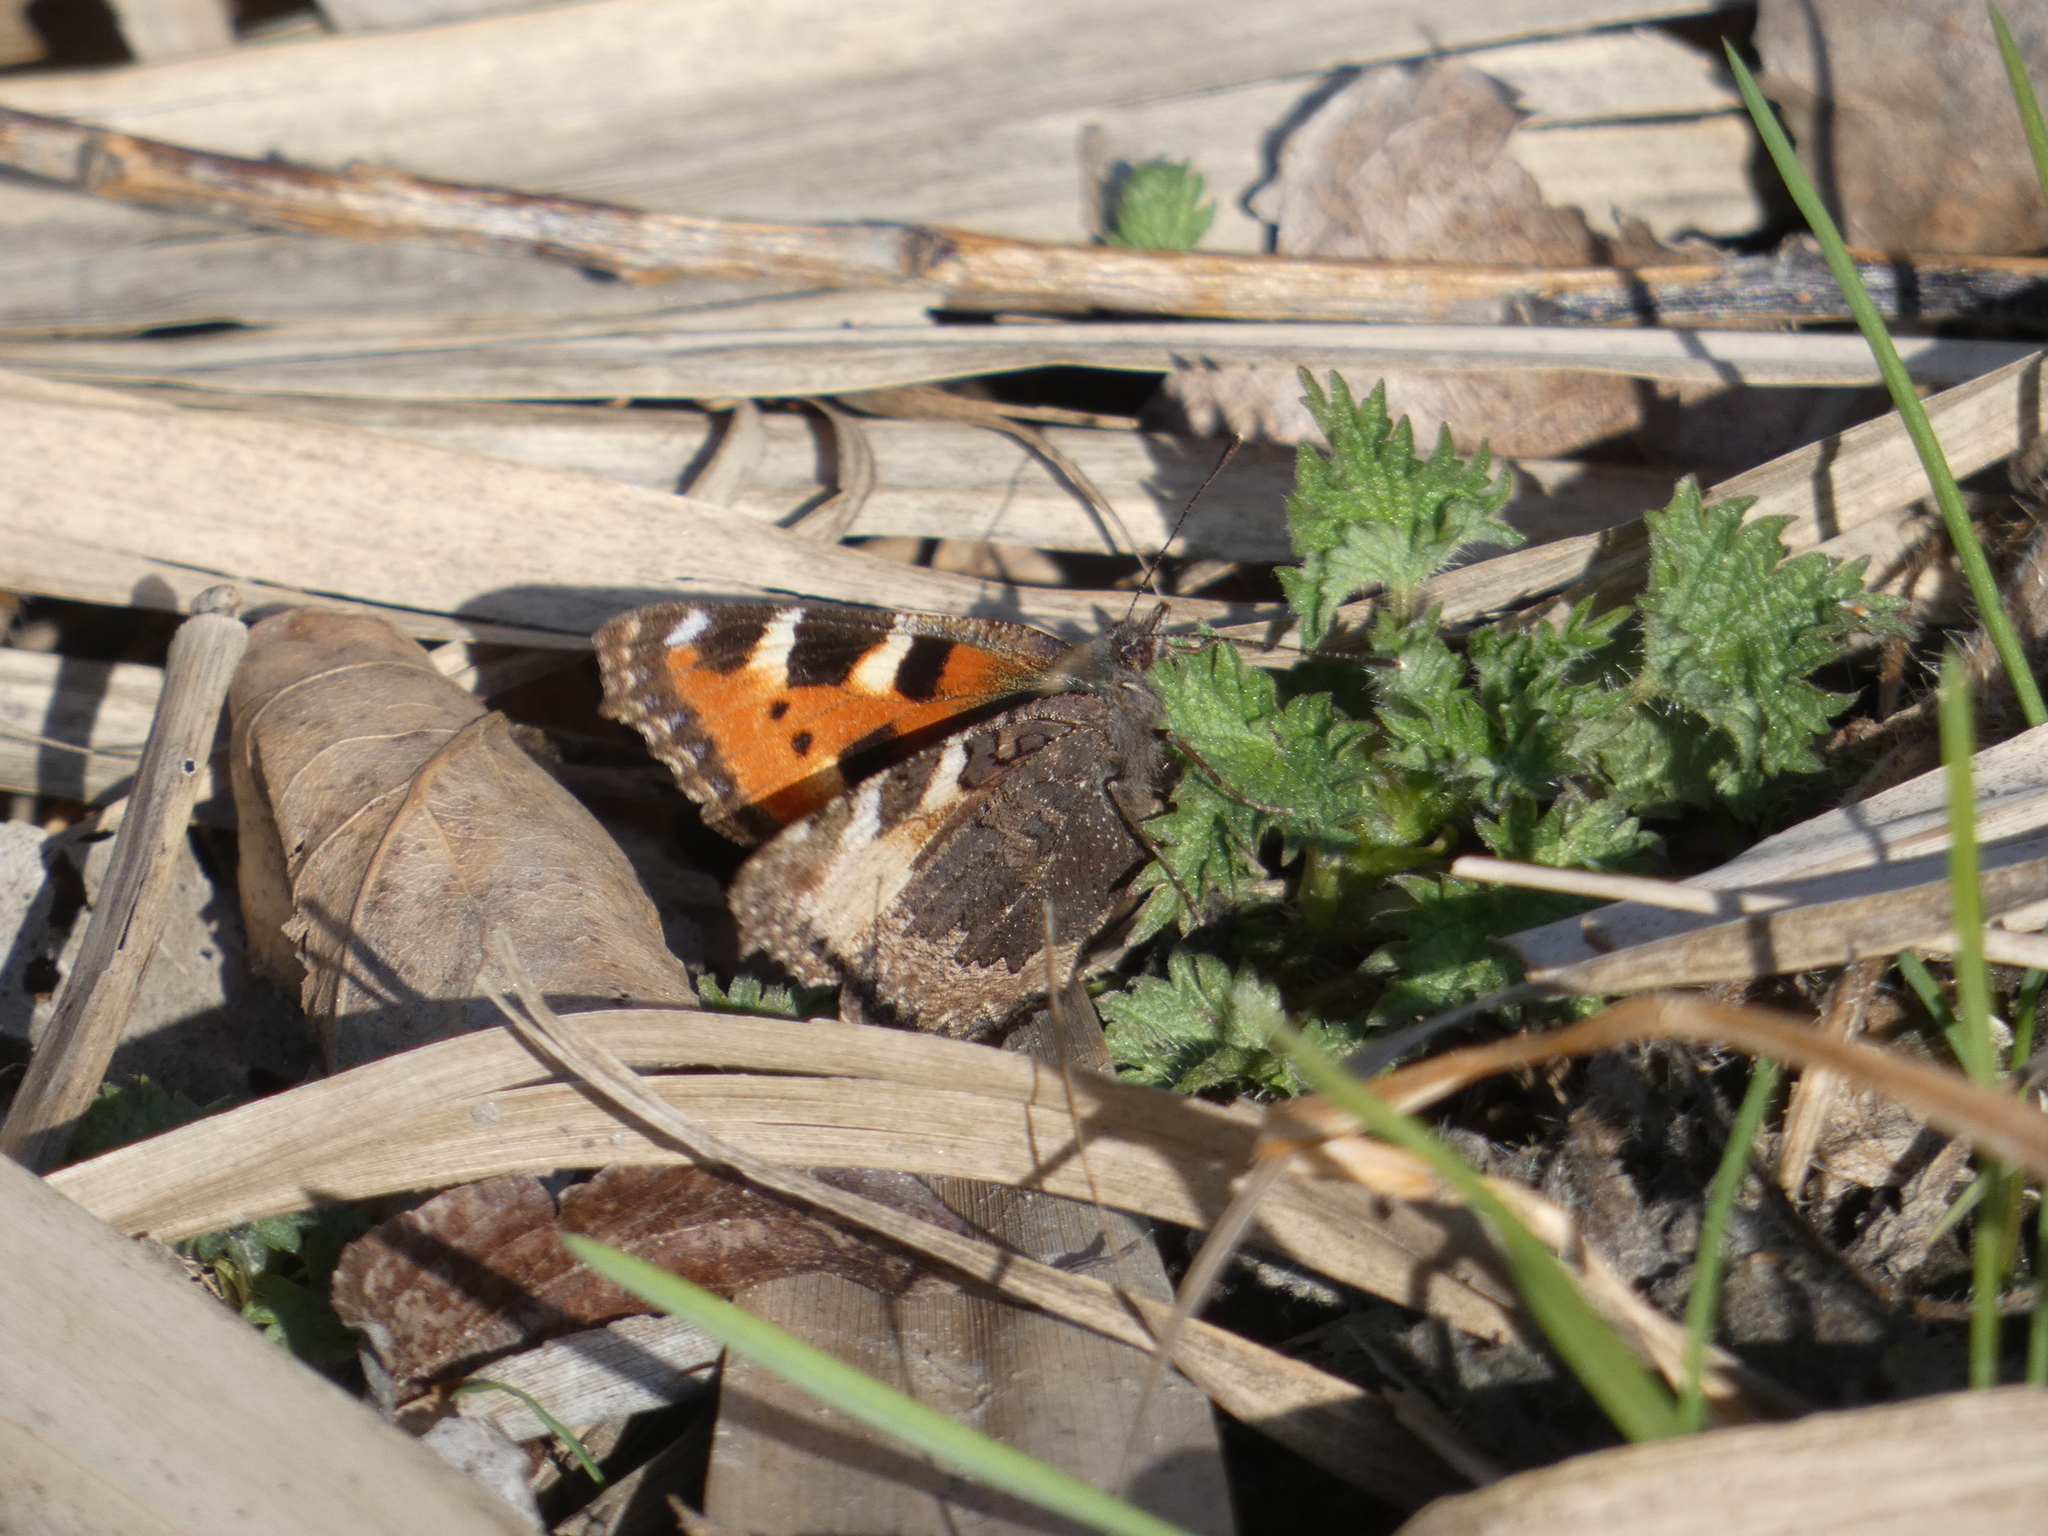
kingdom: Animalia
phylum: Arthropoda
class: Insecta
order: Lepidoptera
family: Nymphalidae
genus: Aglais
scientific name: Aglais urticae
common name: Small tortoiseshell
